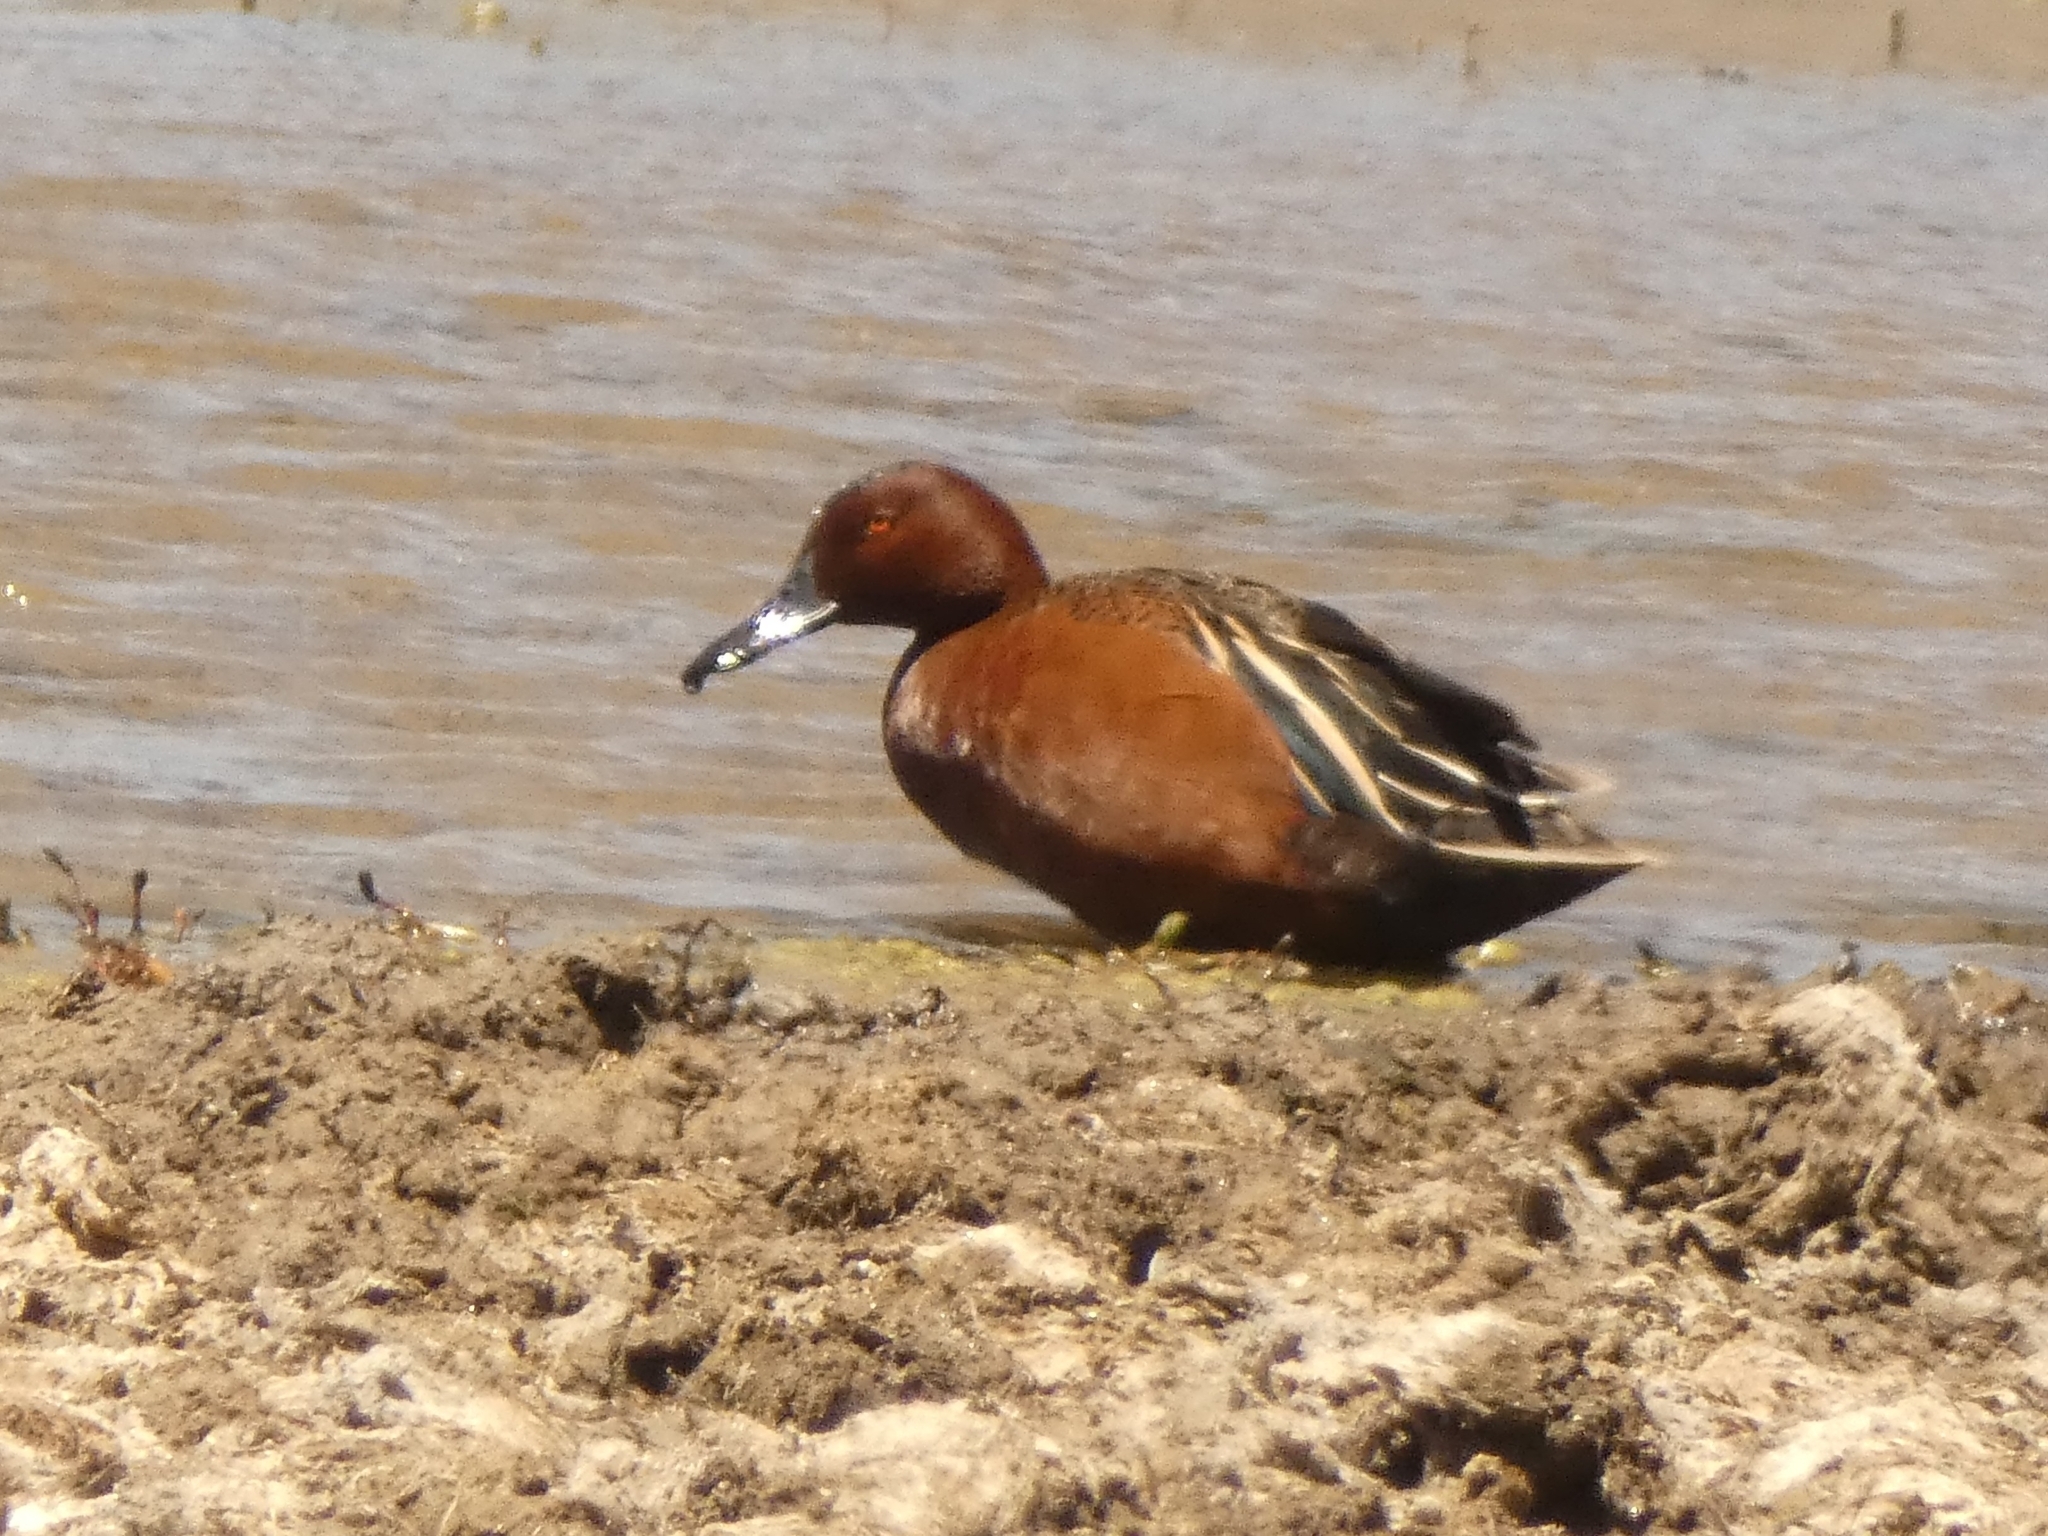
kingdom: Animalia
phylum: Chordata
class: Aves
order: Anseriformes
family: Anatidae
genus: Spatula
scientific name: Spatula cyanoptera
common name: Cinnamon teal
